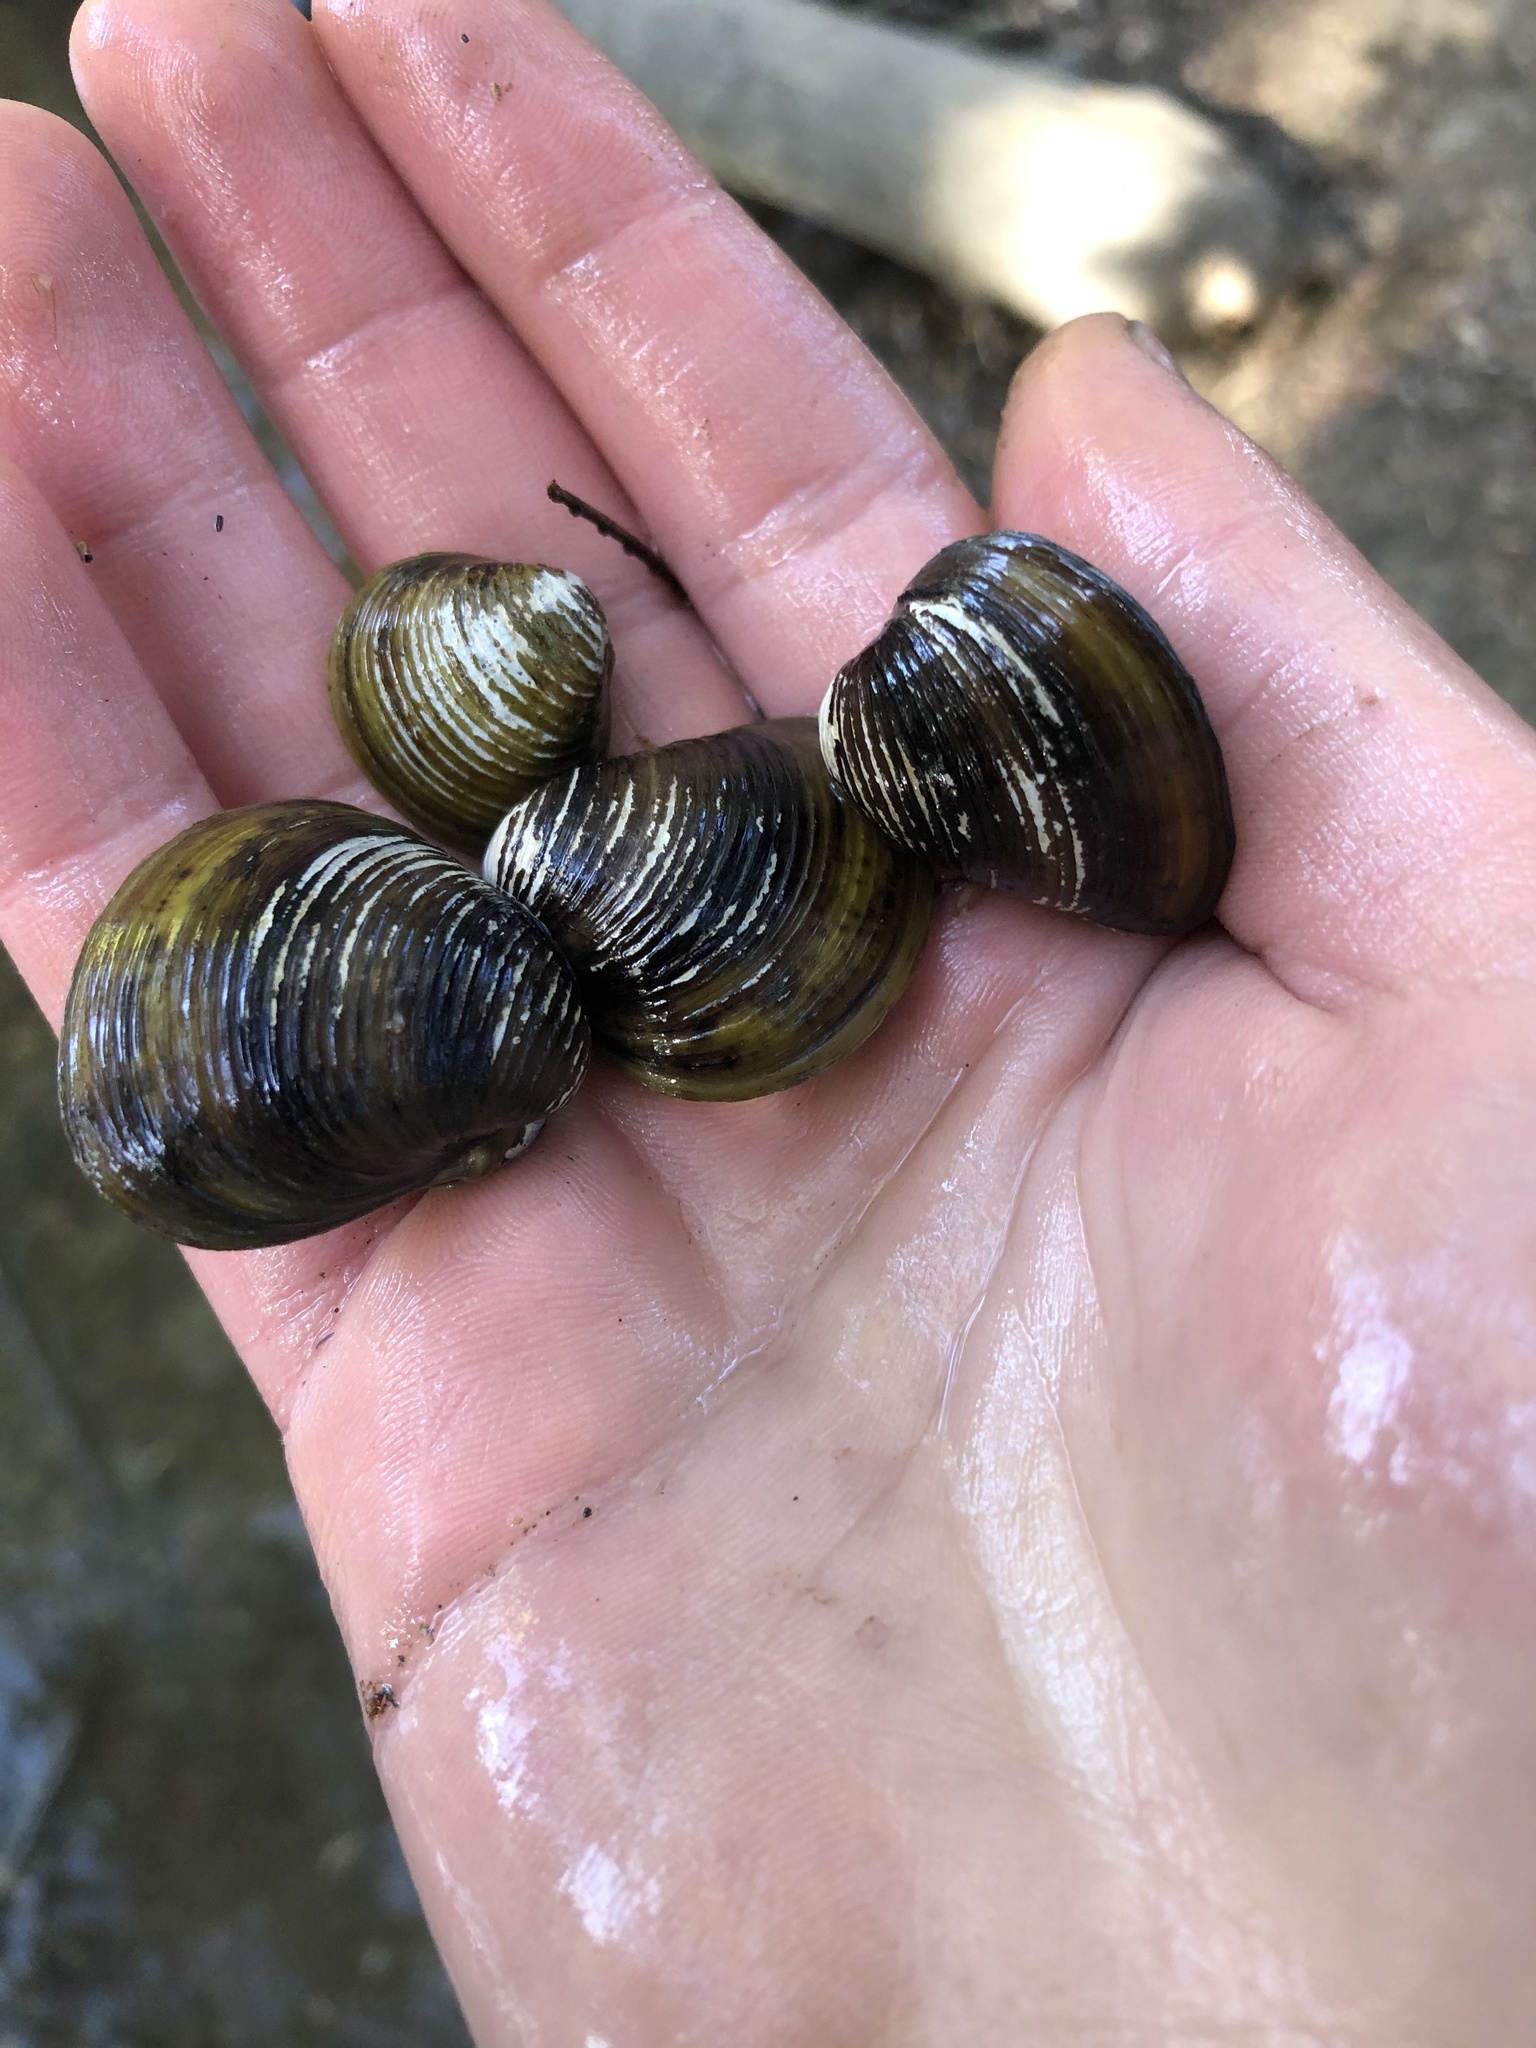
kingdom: Animalia
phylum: Mollusca
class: Bivalvia
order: Venerida
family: Cyrenidae
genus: Corbicula
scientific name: Corbicula fluminea
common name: Asian clam
